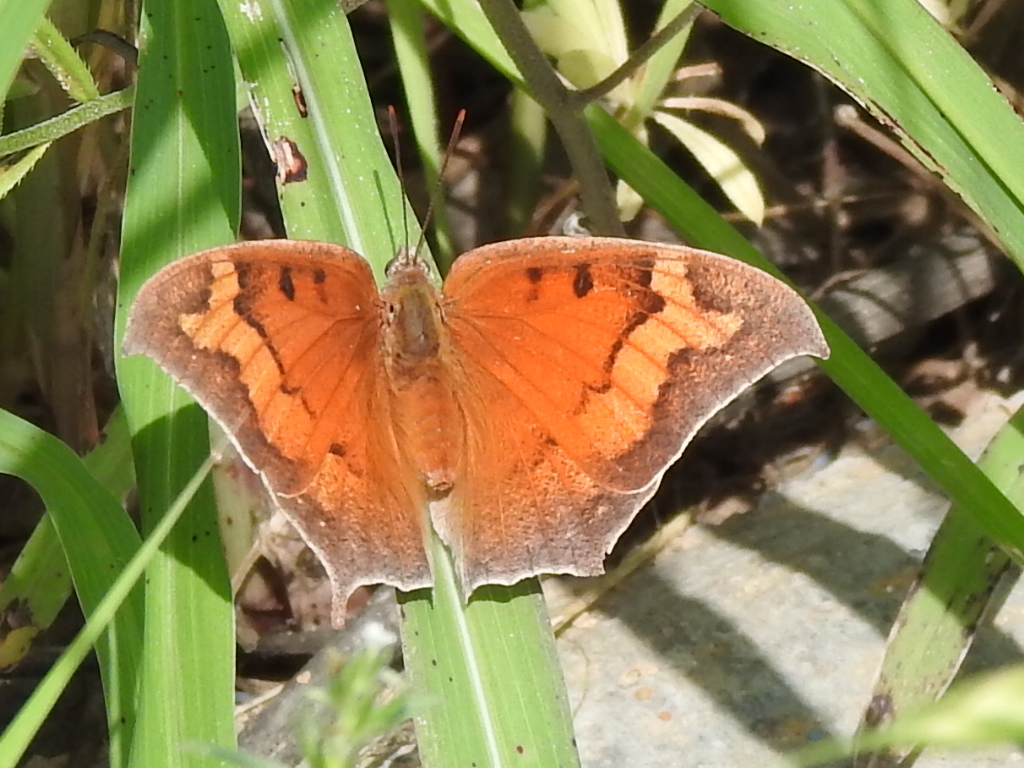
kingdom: Animalia
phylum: Arthropoda
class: Insecta
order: Lepidoptera
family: Nymphalidae
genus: Anaea
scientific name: Anaea andria
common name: Goatweed leafwing
